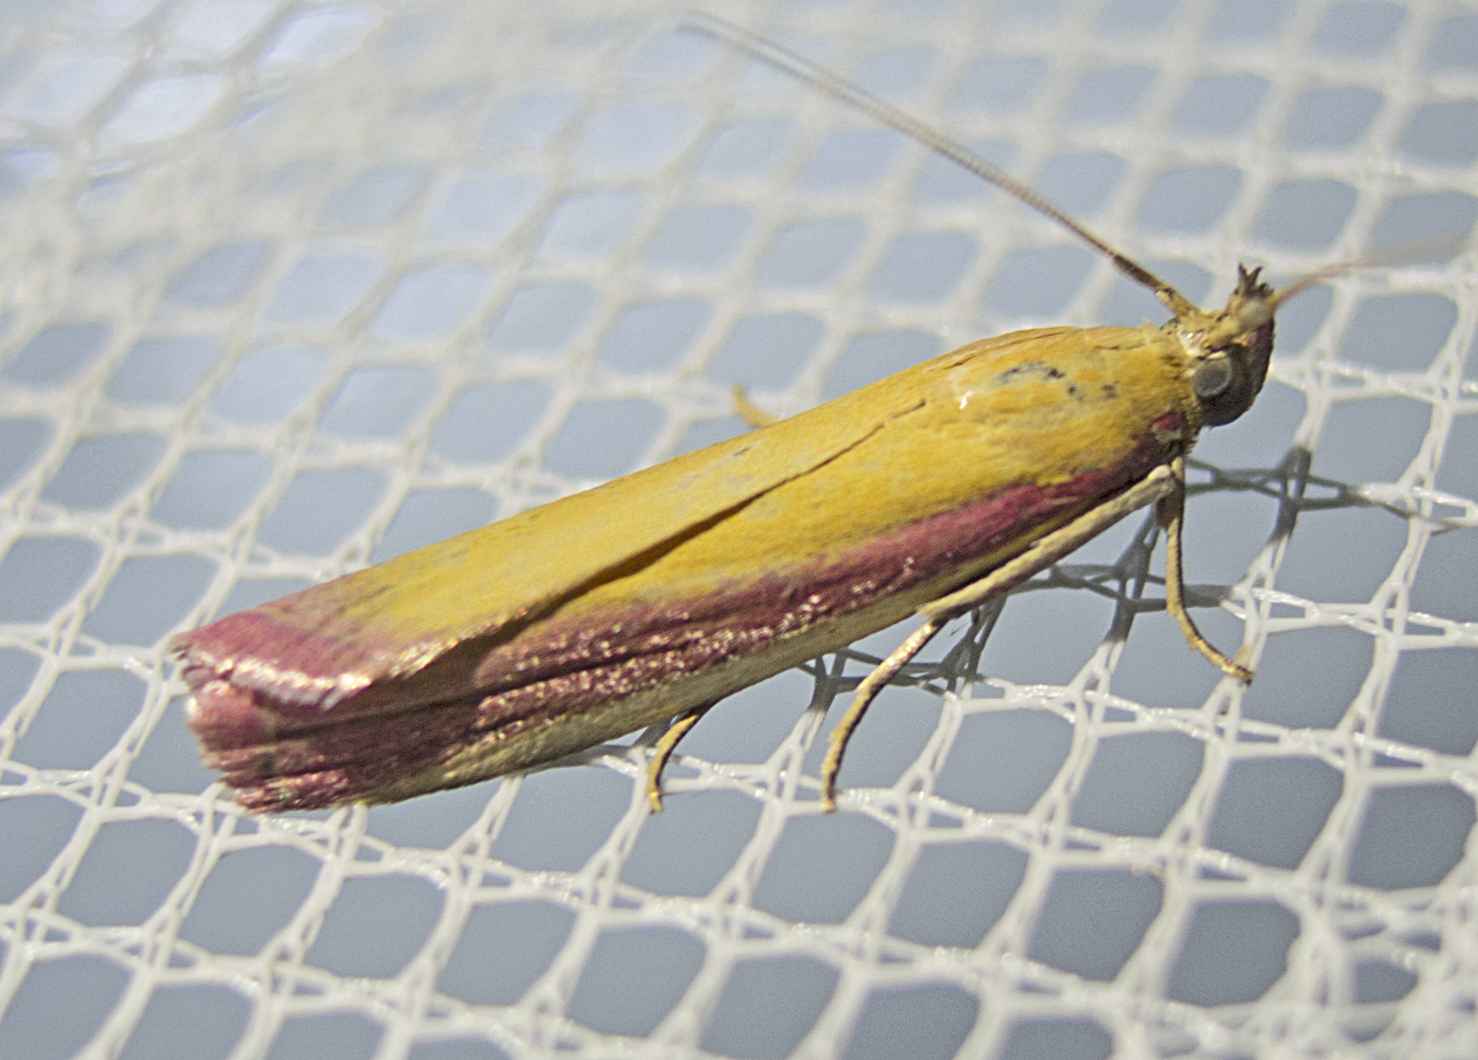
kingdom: Animalia
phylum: Arthropoda
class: Insecta
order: Lepidoptera
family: Pyralidae
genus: Oncocera
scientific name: Oncocera semirubella
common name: Rosy-striped knot-horn
